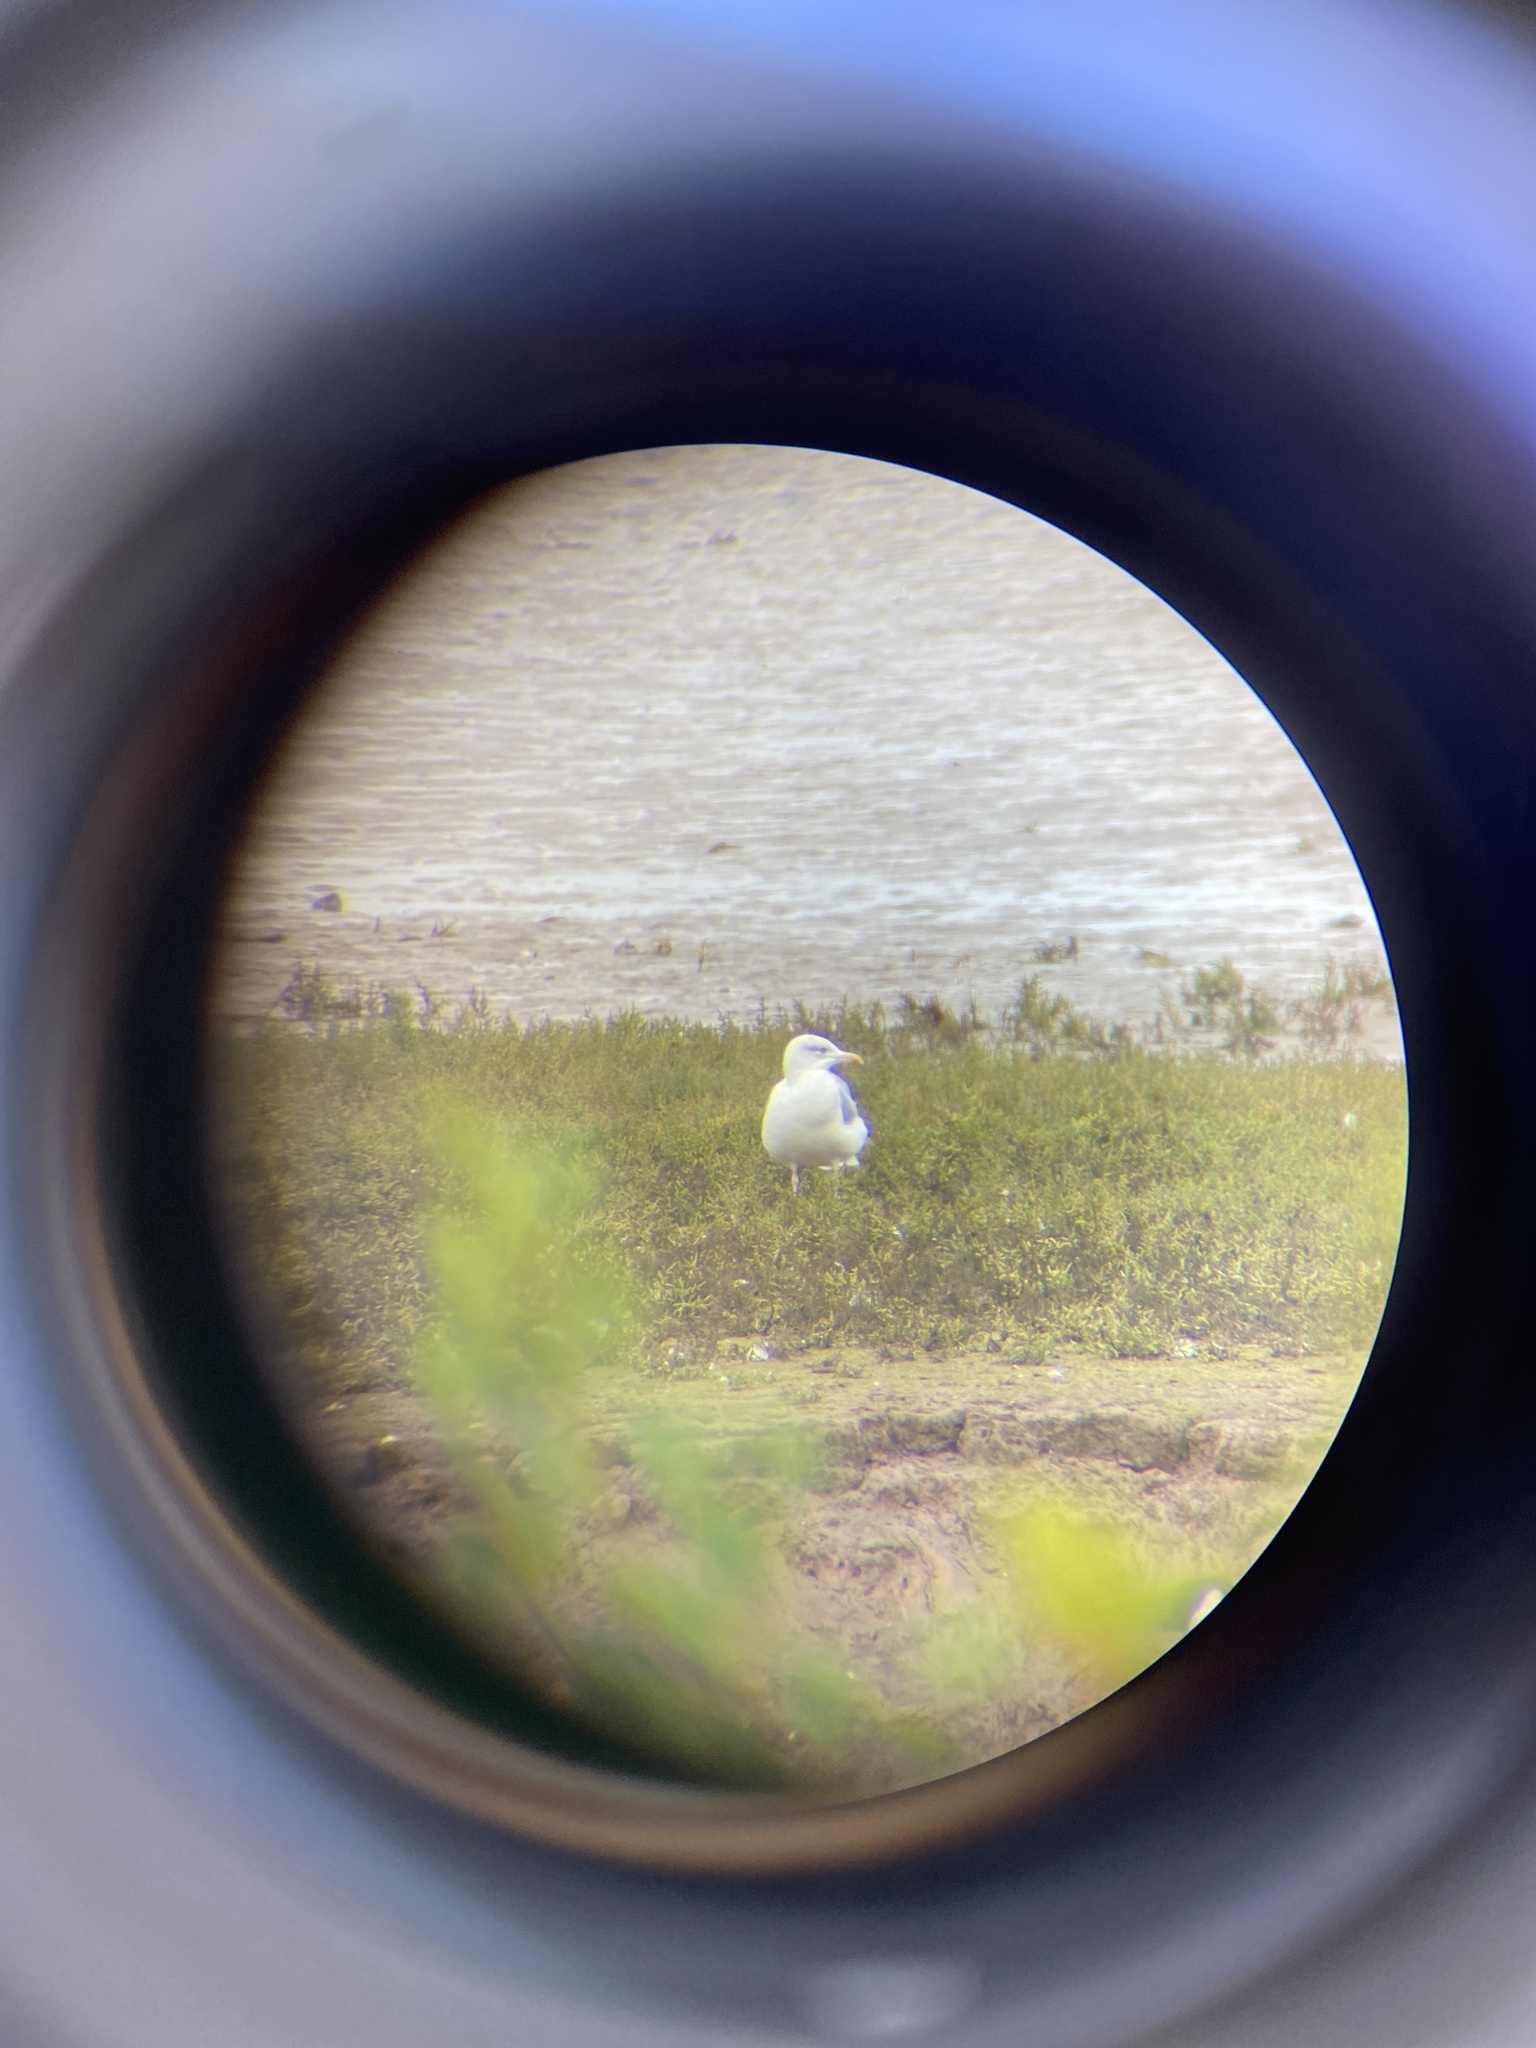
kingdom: Animalia
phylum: Chordata
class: Aves
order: Charadriiformes
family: Laridae
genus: Larus
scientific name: Larus argentatus
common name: Herring gull
